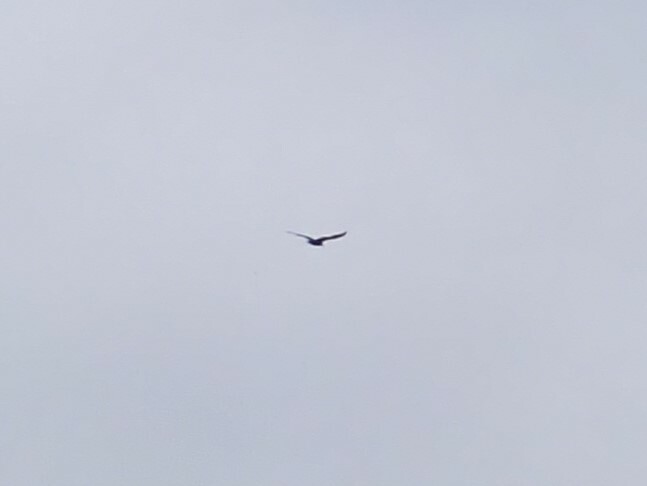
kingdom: Animalia
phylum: Chordata
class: Aves
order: Accipitriformes
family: Cathartidae
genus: Cathartes
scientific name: Cathartes aura
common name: Turkey vulture
